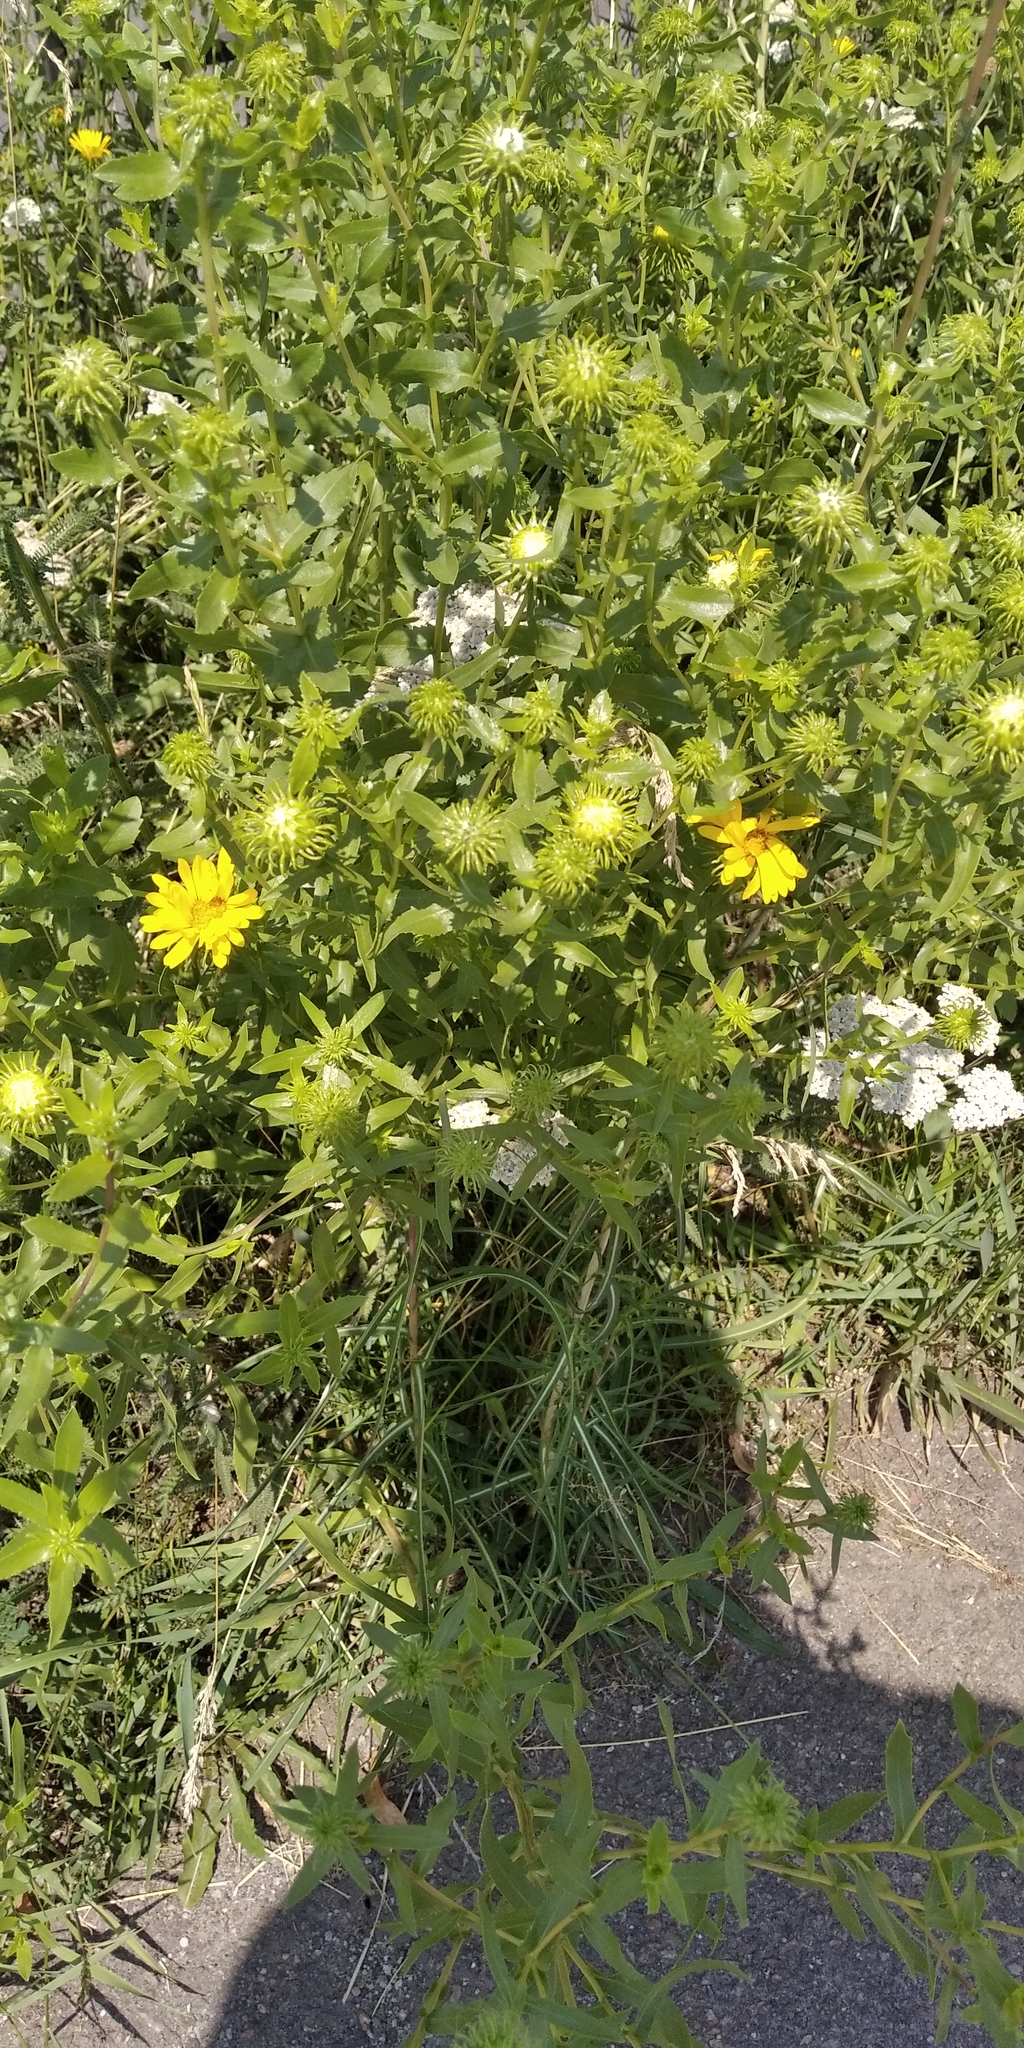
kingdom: Plantae
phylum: Tracheophyta
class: Magnoliopsida
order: Asterales
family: Asteraceae
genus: Grindelia
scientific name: Grindelia squarrosa
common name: Curly-cup gumweed
